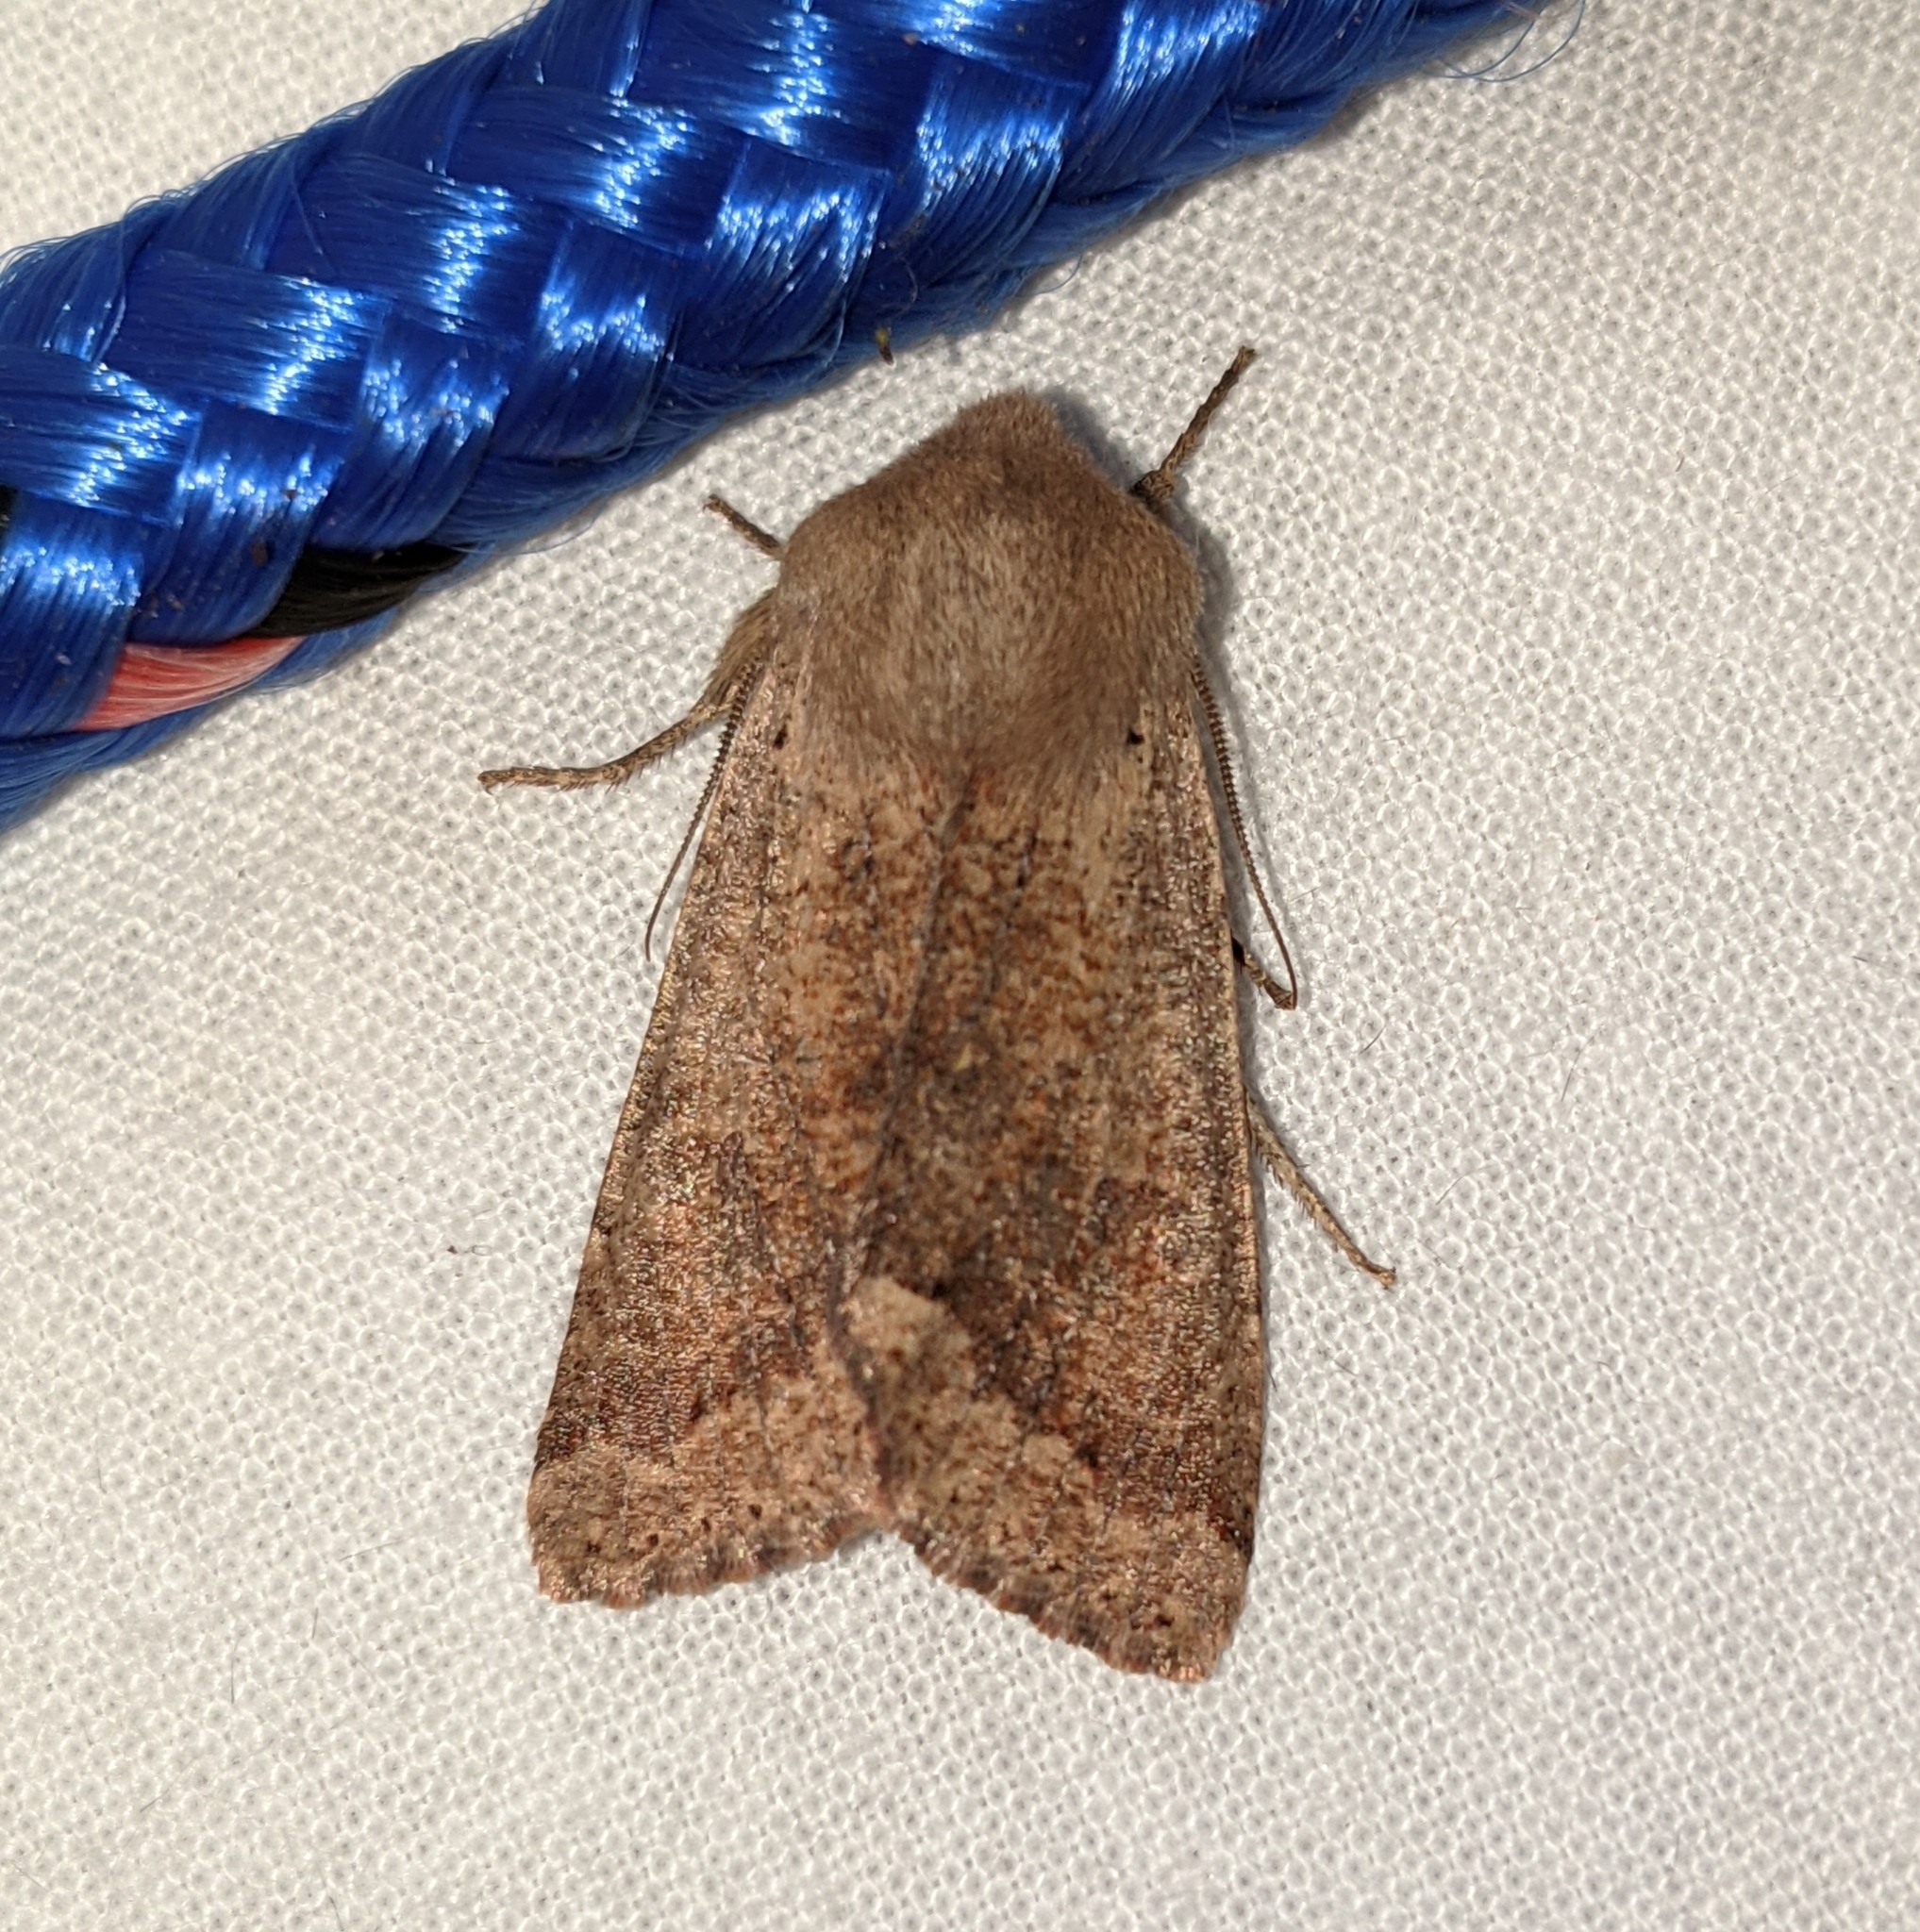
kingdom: Animalia
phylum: Arthropoda
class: Insecta
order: Lepidoptera
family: Noctuidae
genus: Orthosia
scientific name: Orthosia pacifica
